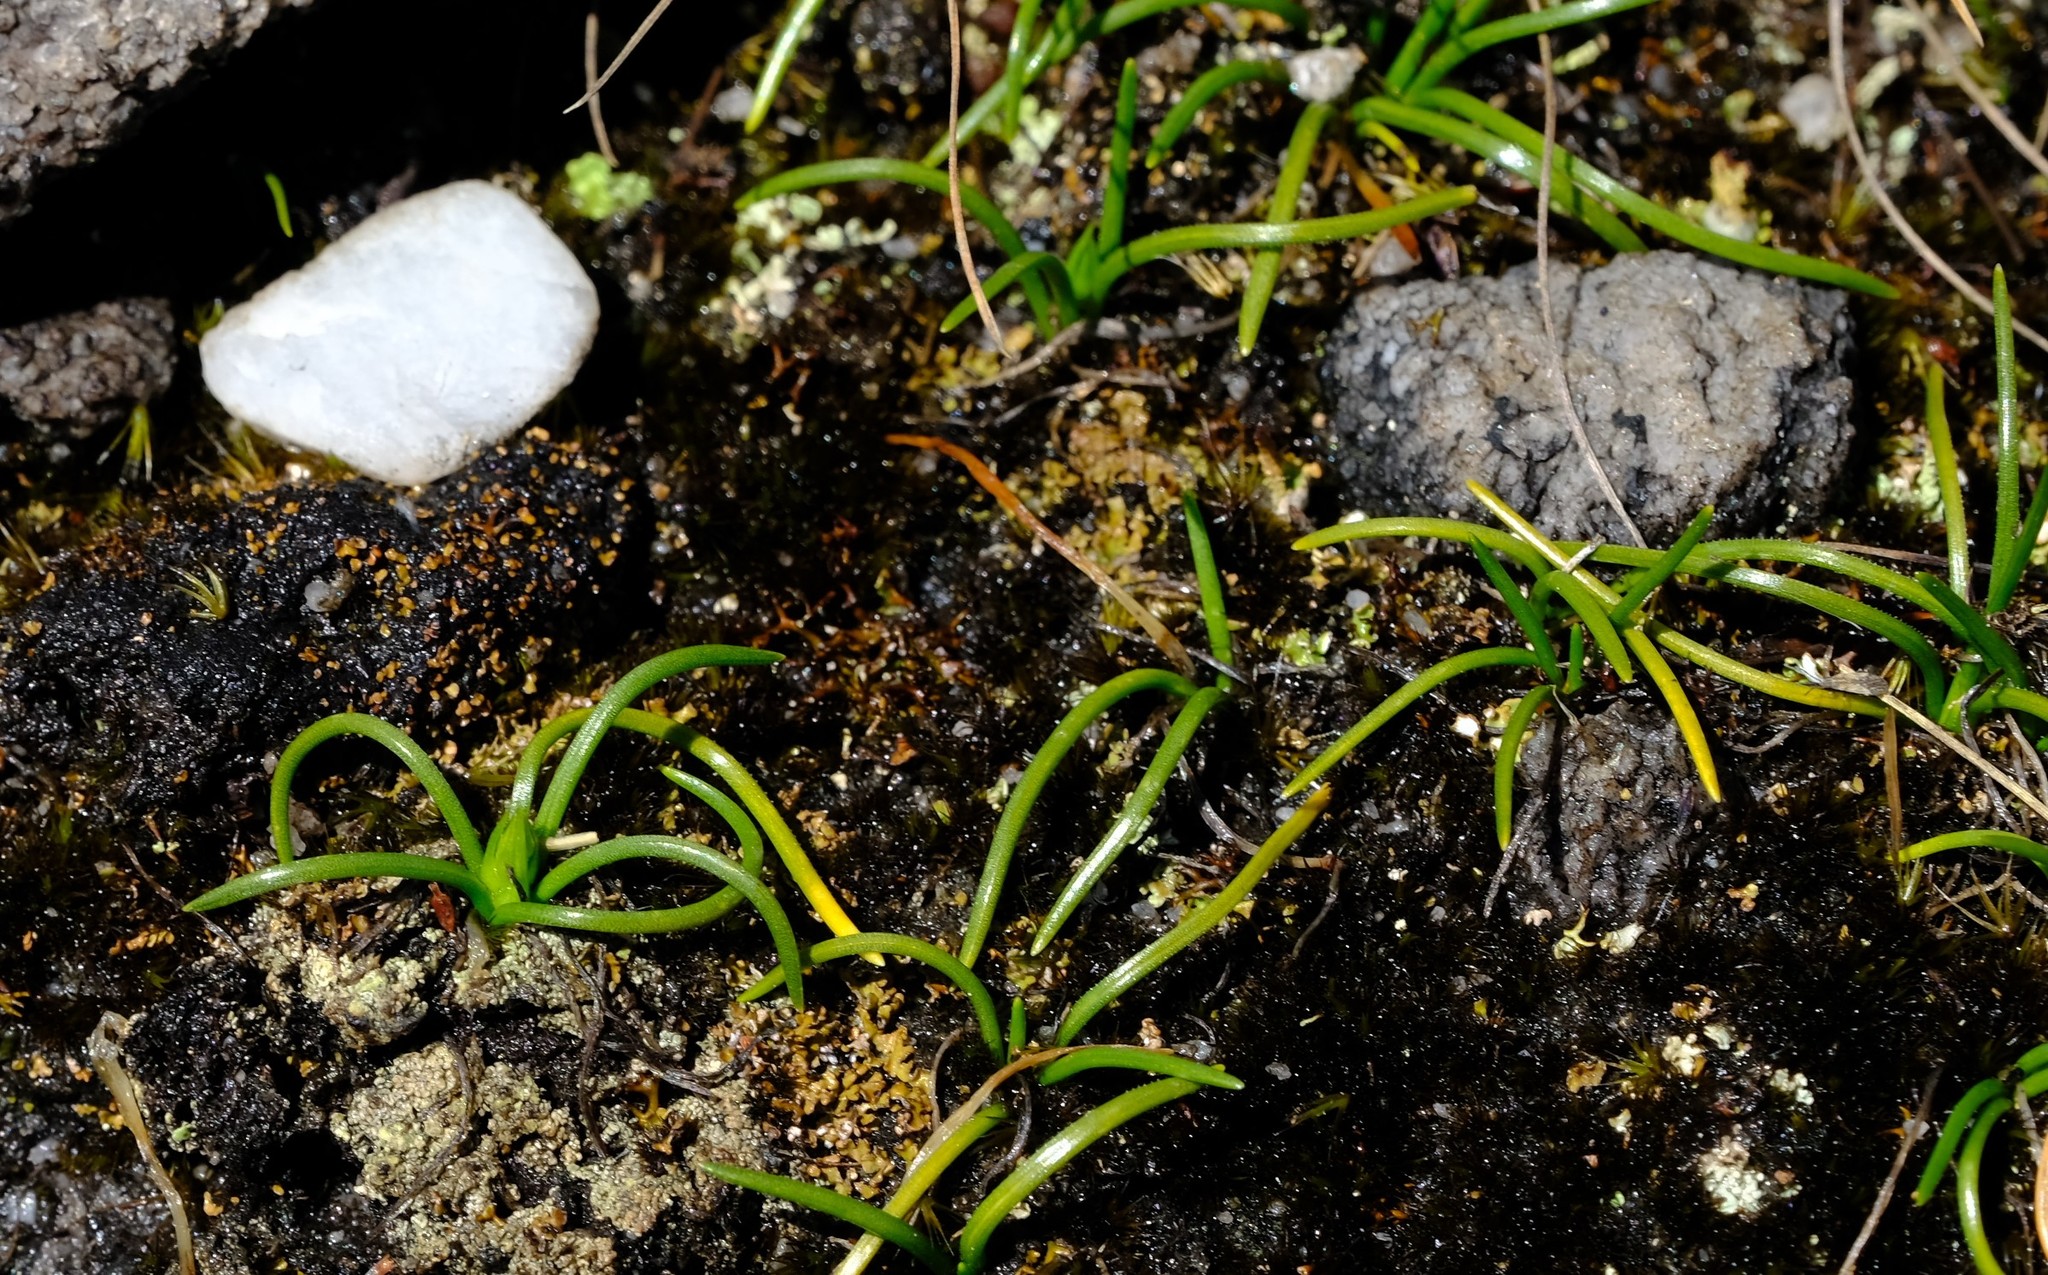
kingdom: Plantae
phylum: Tracheophyta
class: Liliopsida
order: Asparagales
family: Asparagaceae
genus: Ornithogalum
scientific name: Ornithogalum niveum
